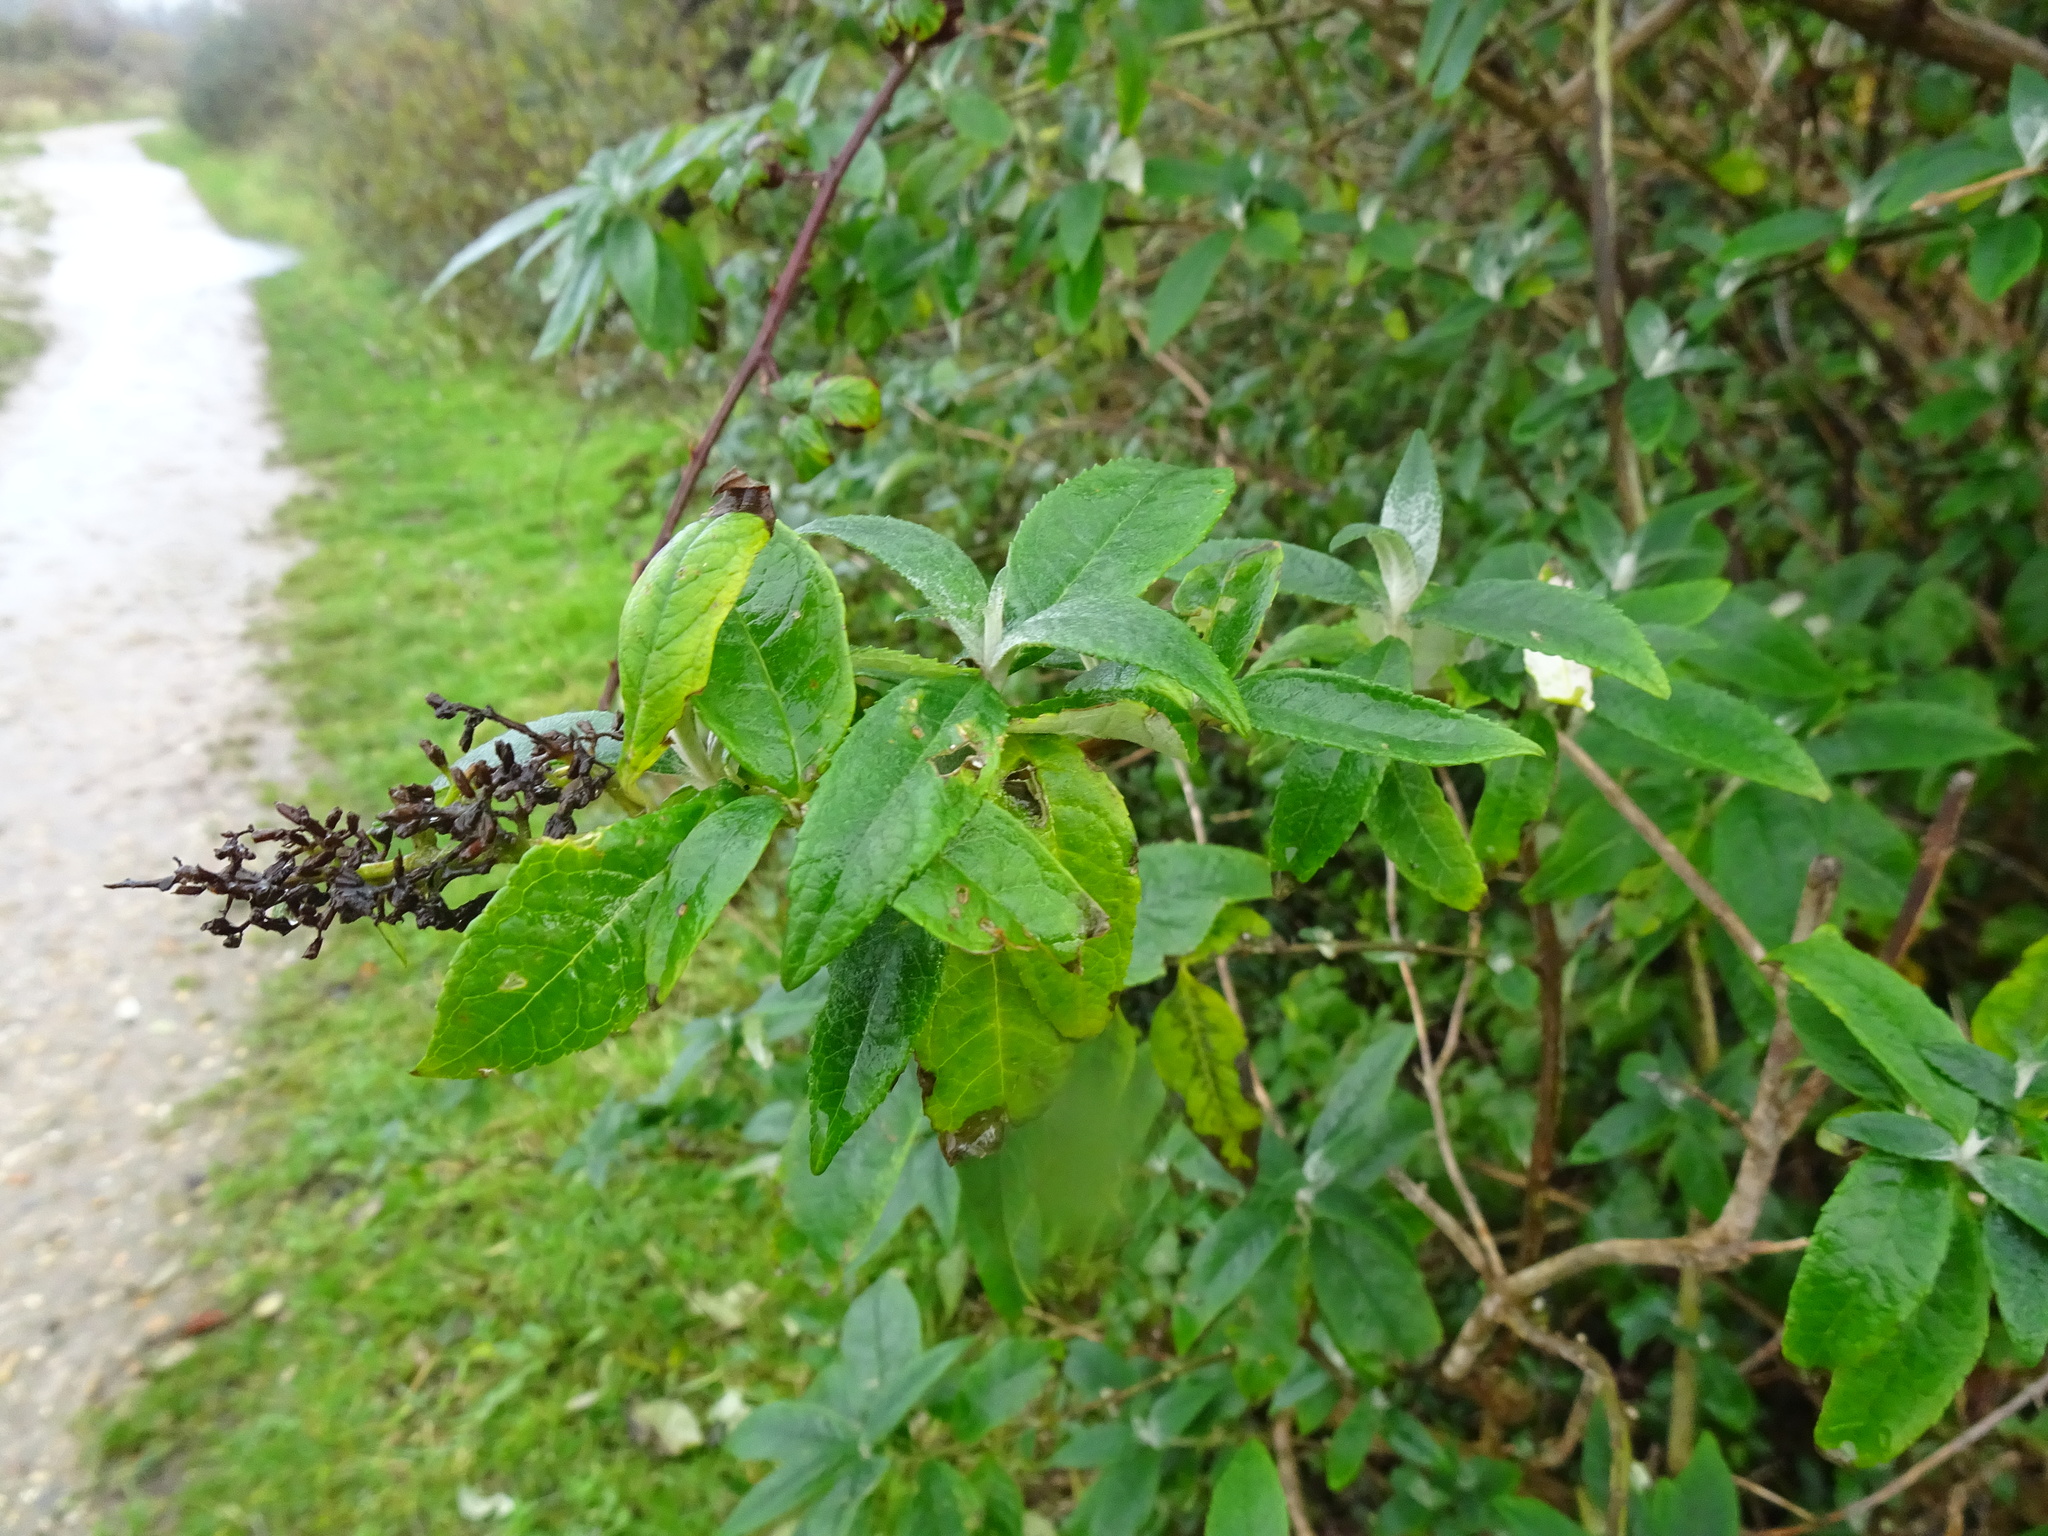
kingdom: Plantae
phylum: Tracheophyta
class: Magnoliopsida
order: Lamiales
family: Scrophulariaceae
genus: Buddleja
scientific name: Buddleja davidii
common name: Butterfly-bush
